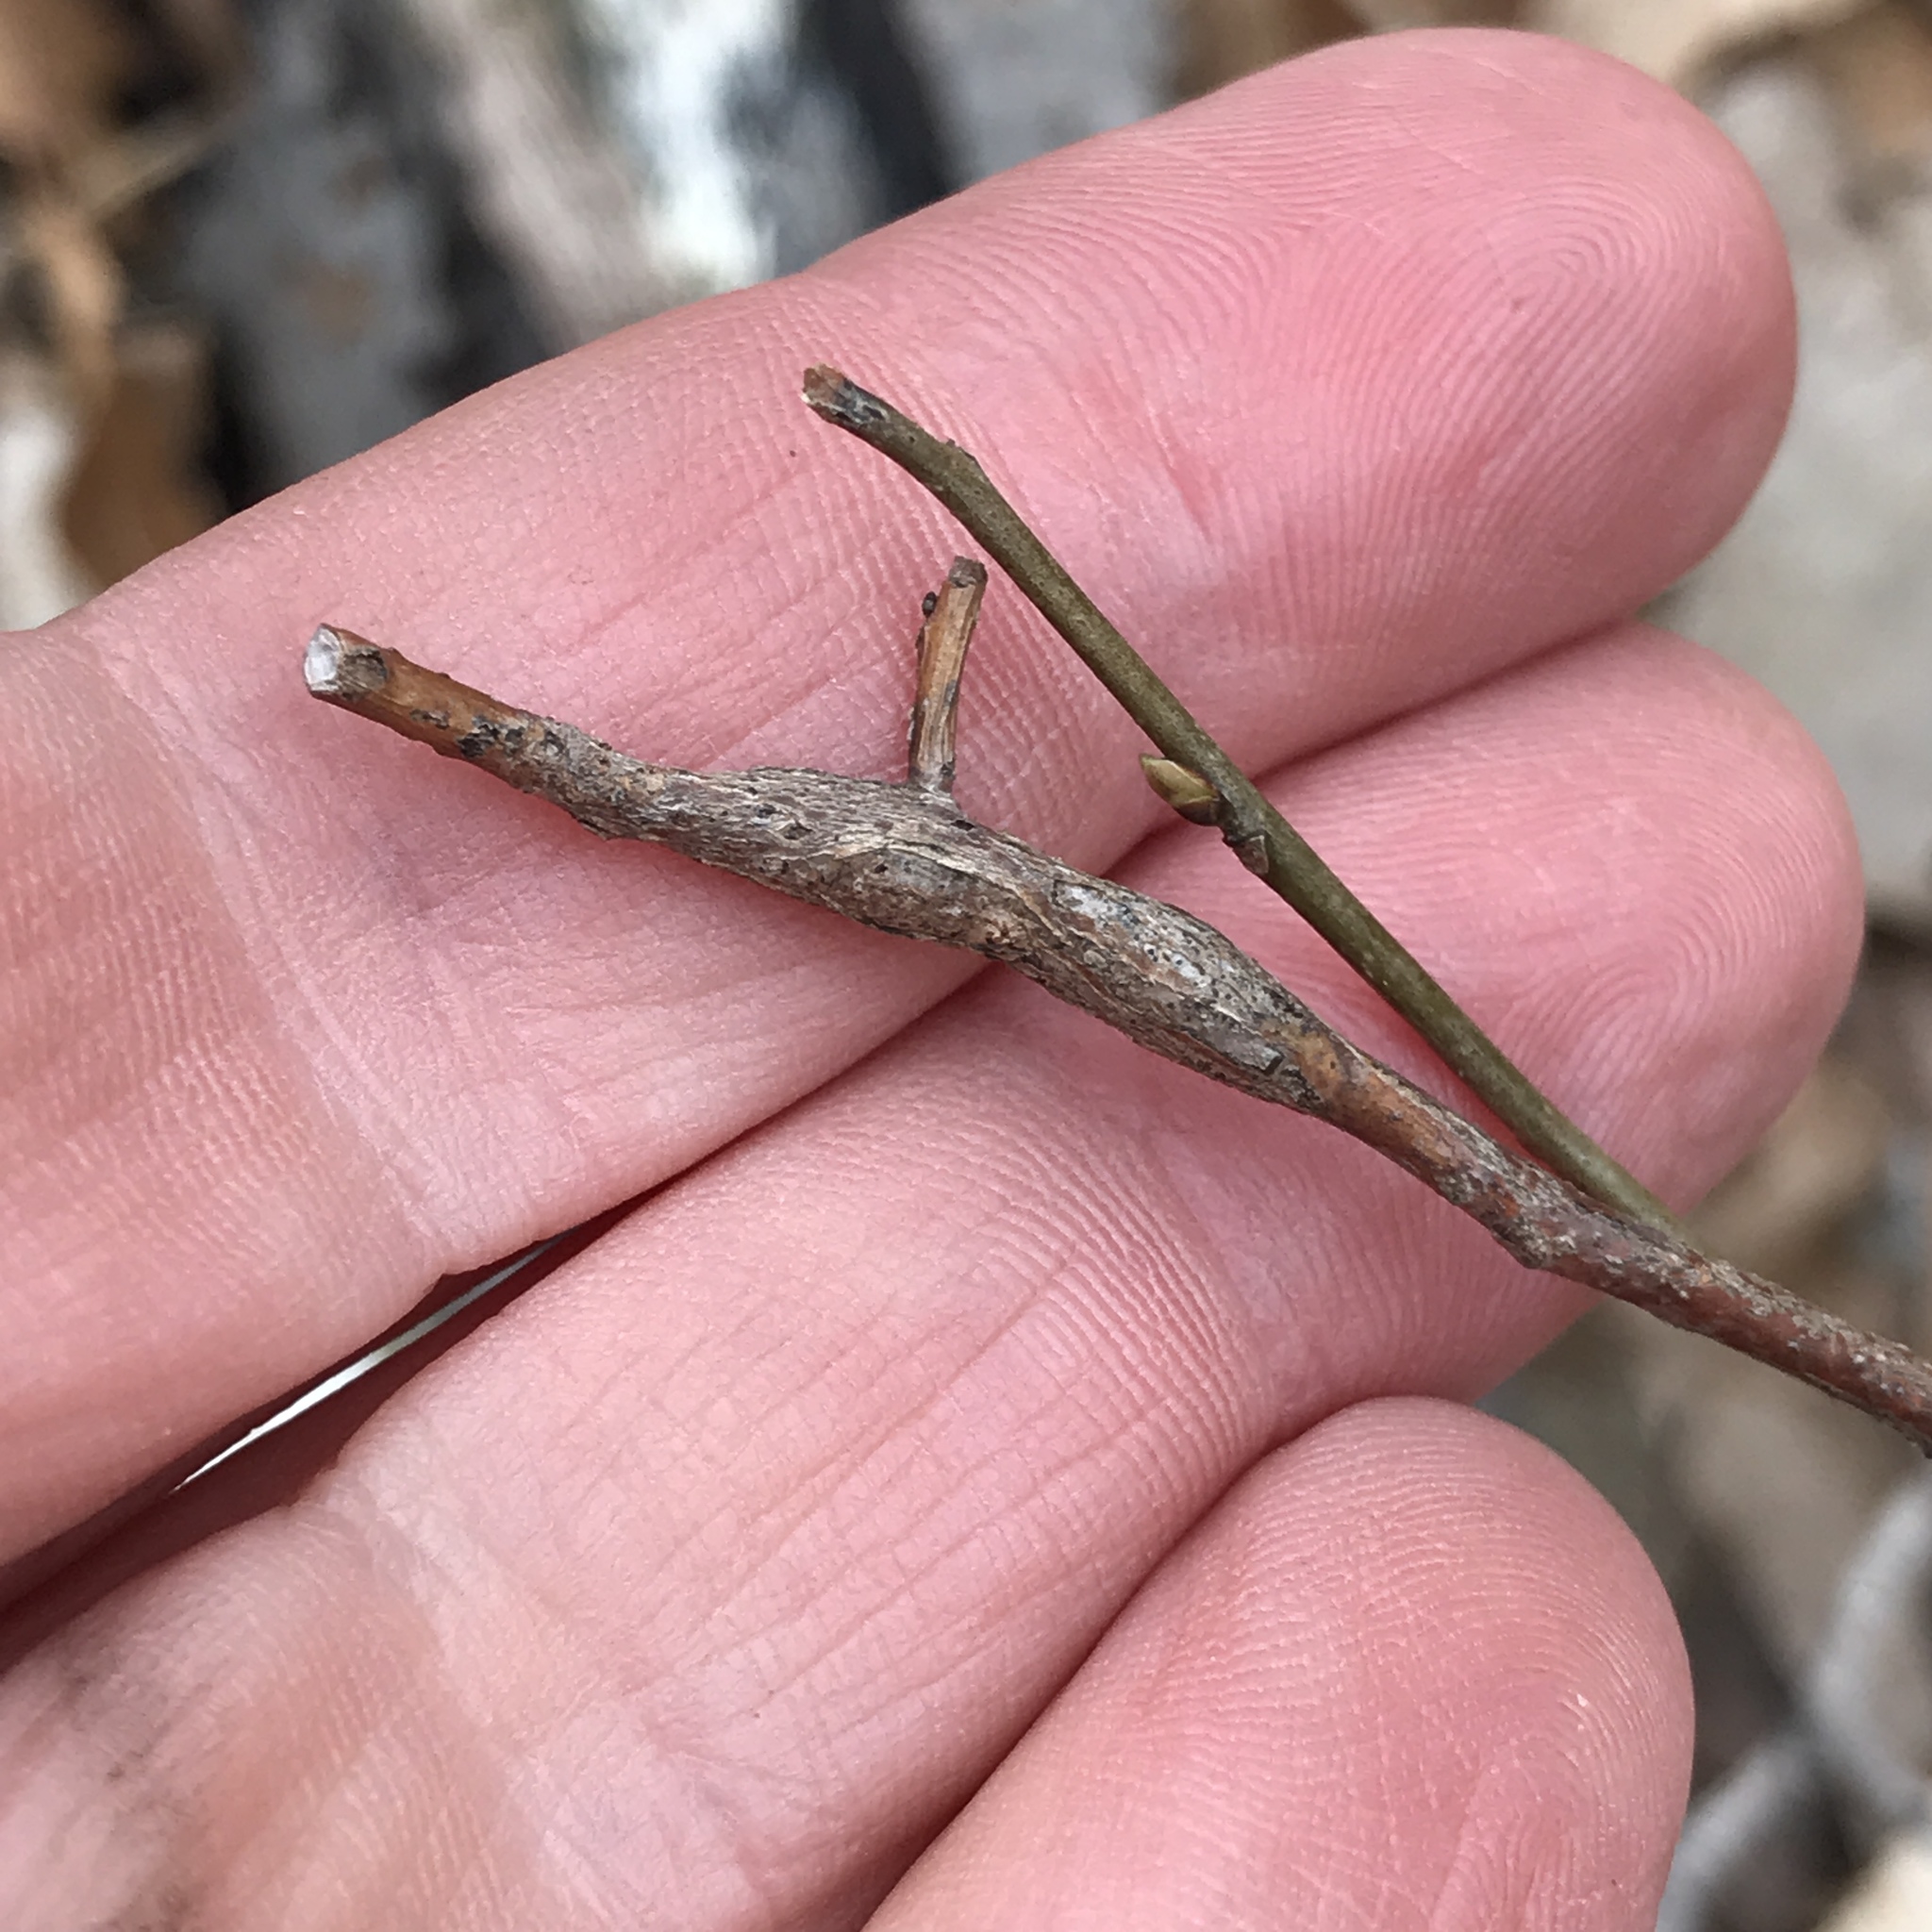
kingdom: Animalia
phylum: Arthropoda
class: Insecta
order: Diptera
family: Cecidomyiidae
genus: Neolasioptera
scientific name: Neolasioptera linderae
